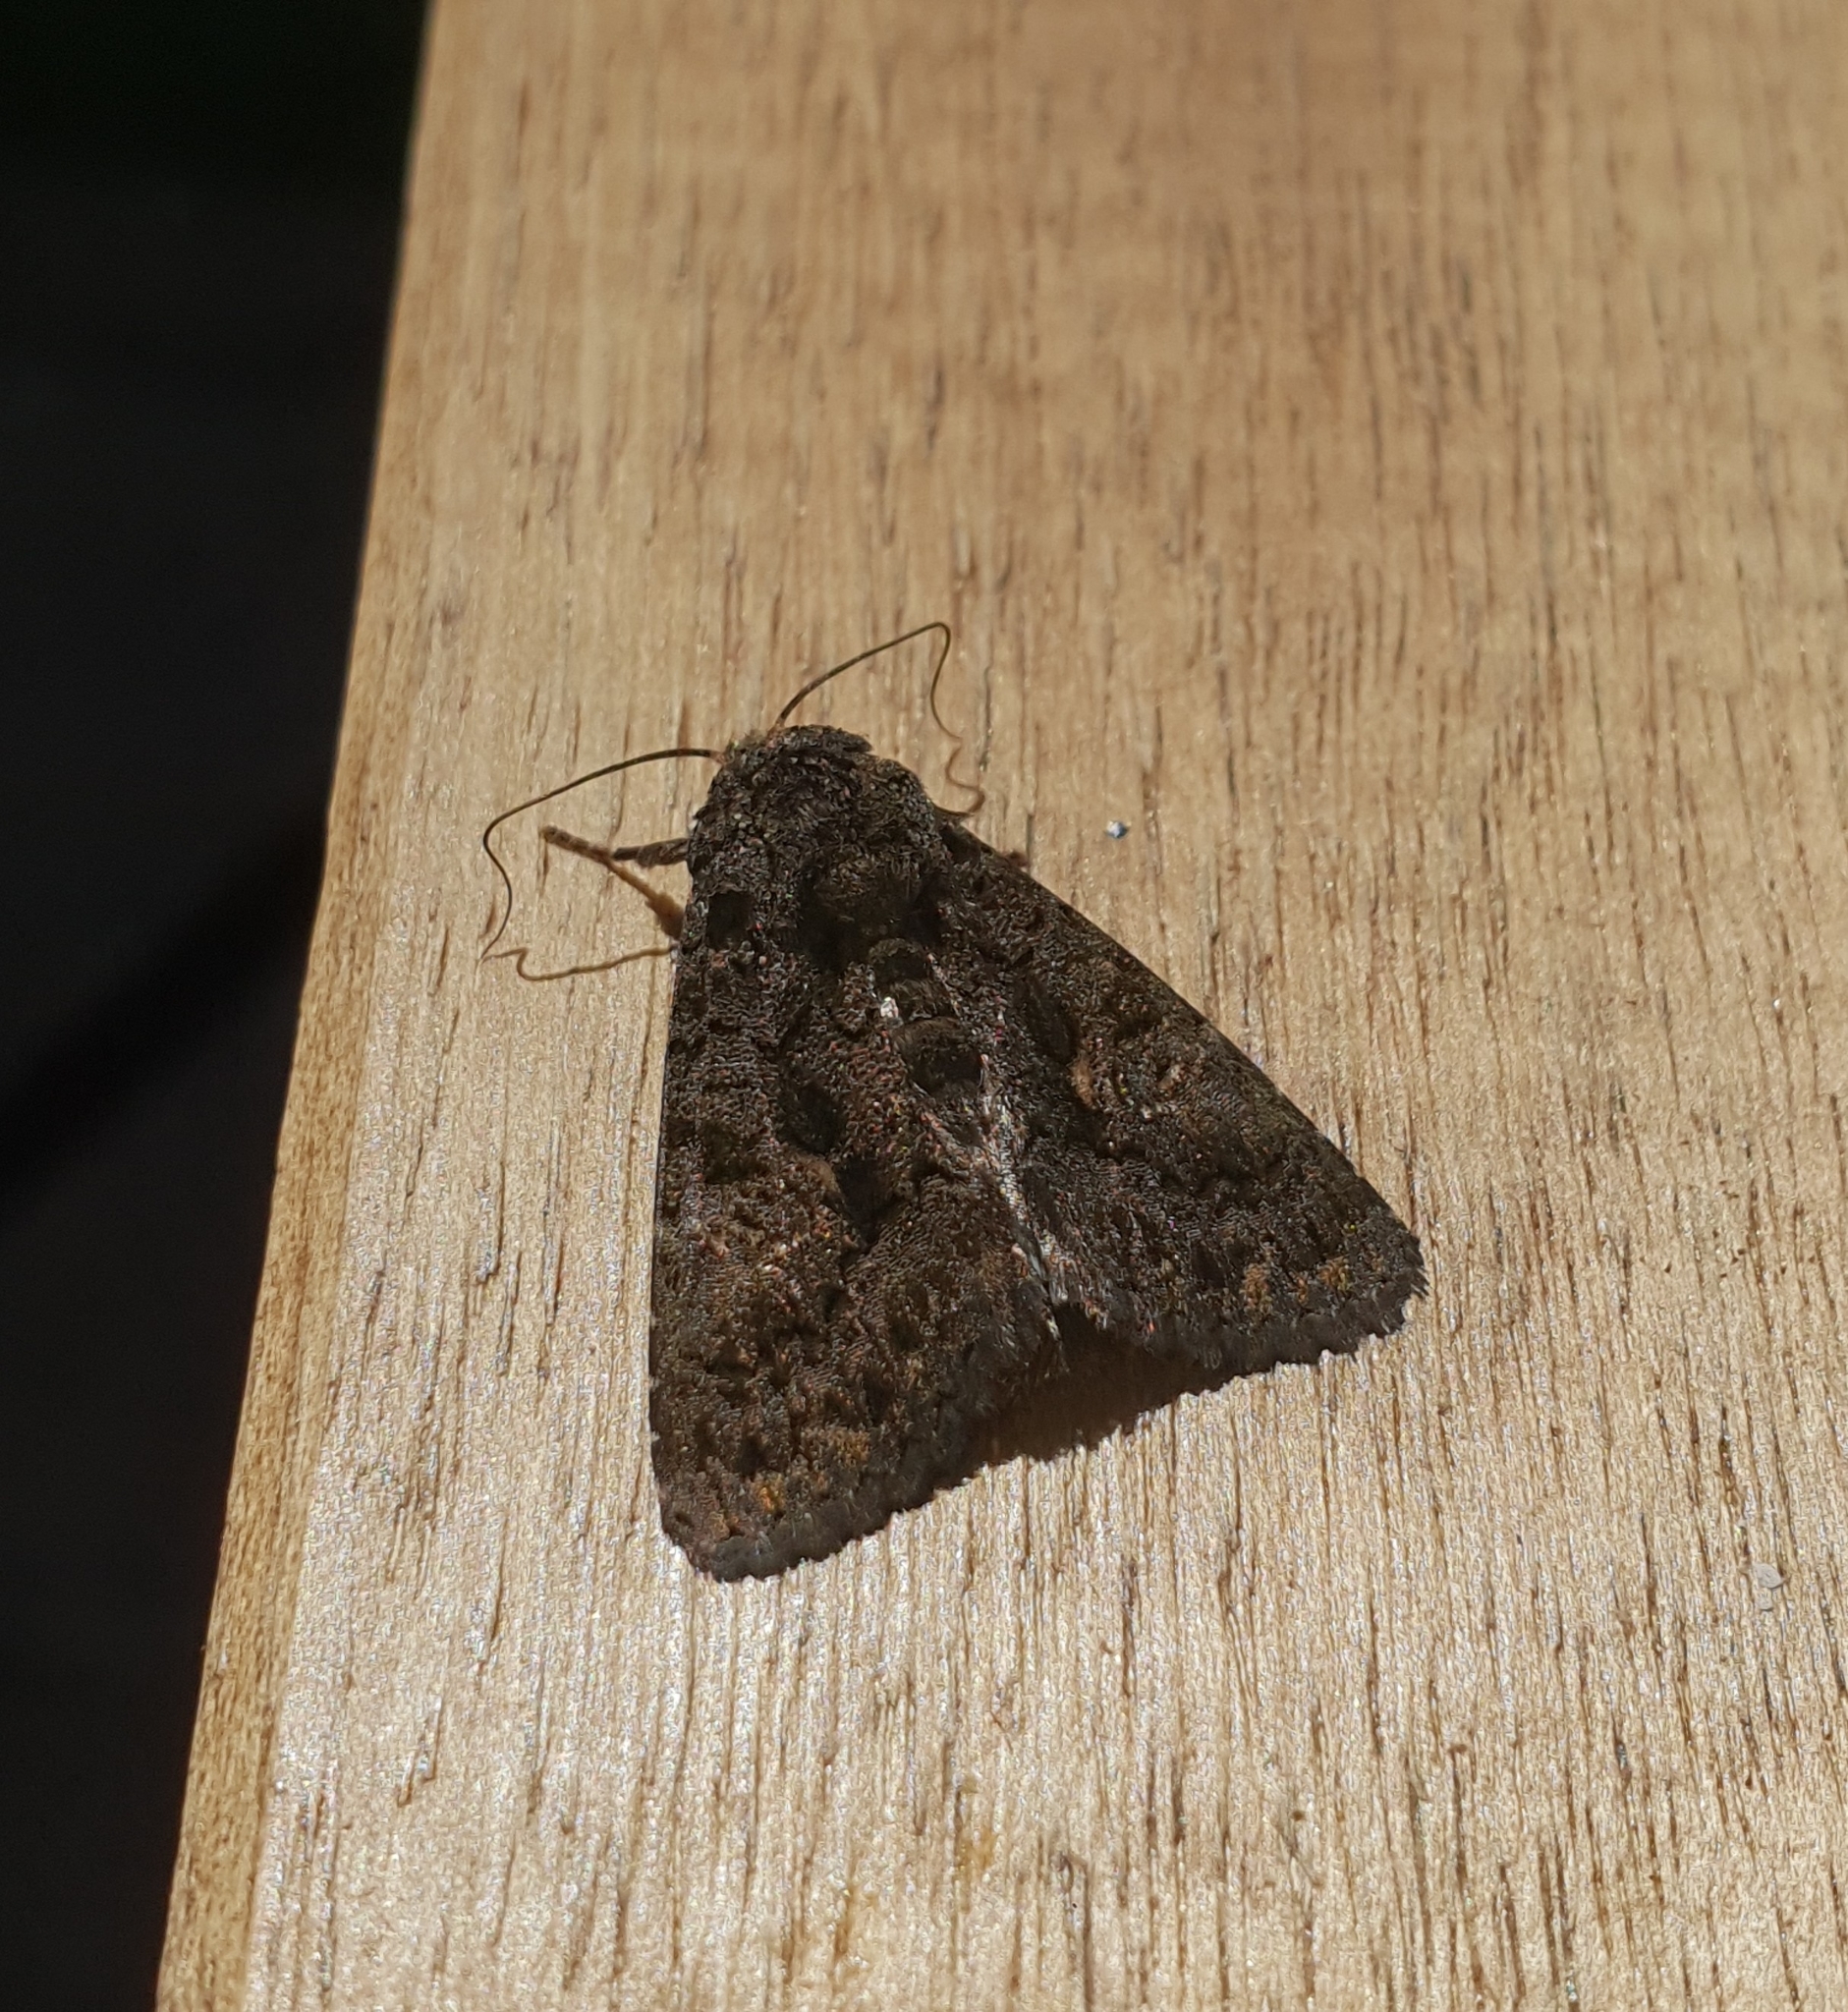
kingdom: Animalia
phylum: Arthropoda
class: Insecta
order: Lepidoptera
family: Noctuidae
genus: Aedia
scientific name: Aedia leucomelas
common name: Sorcerer
